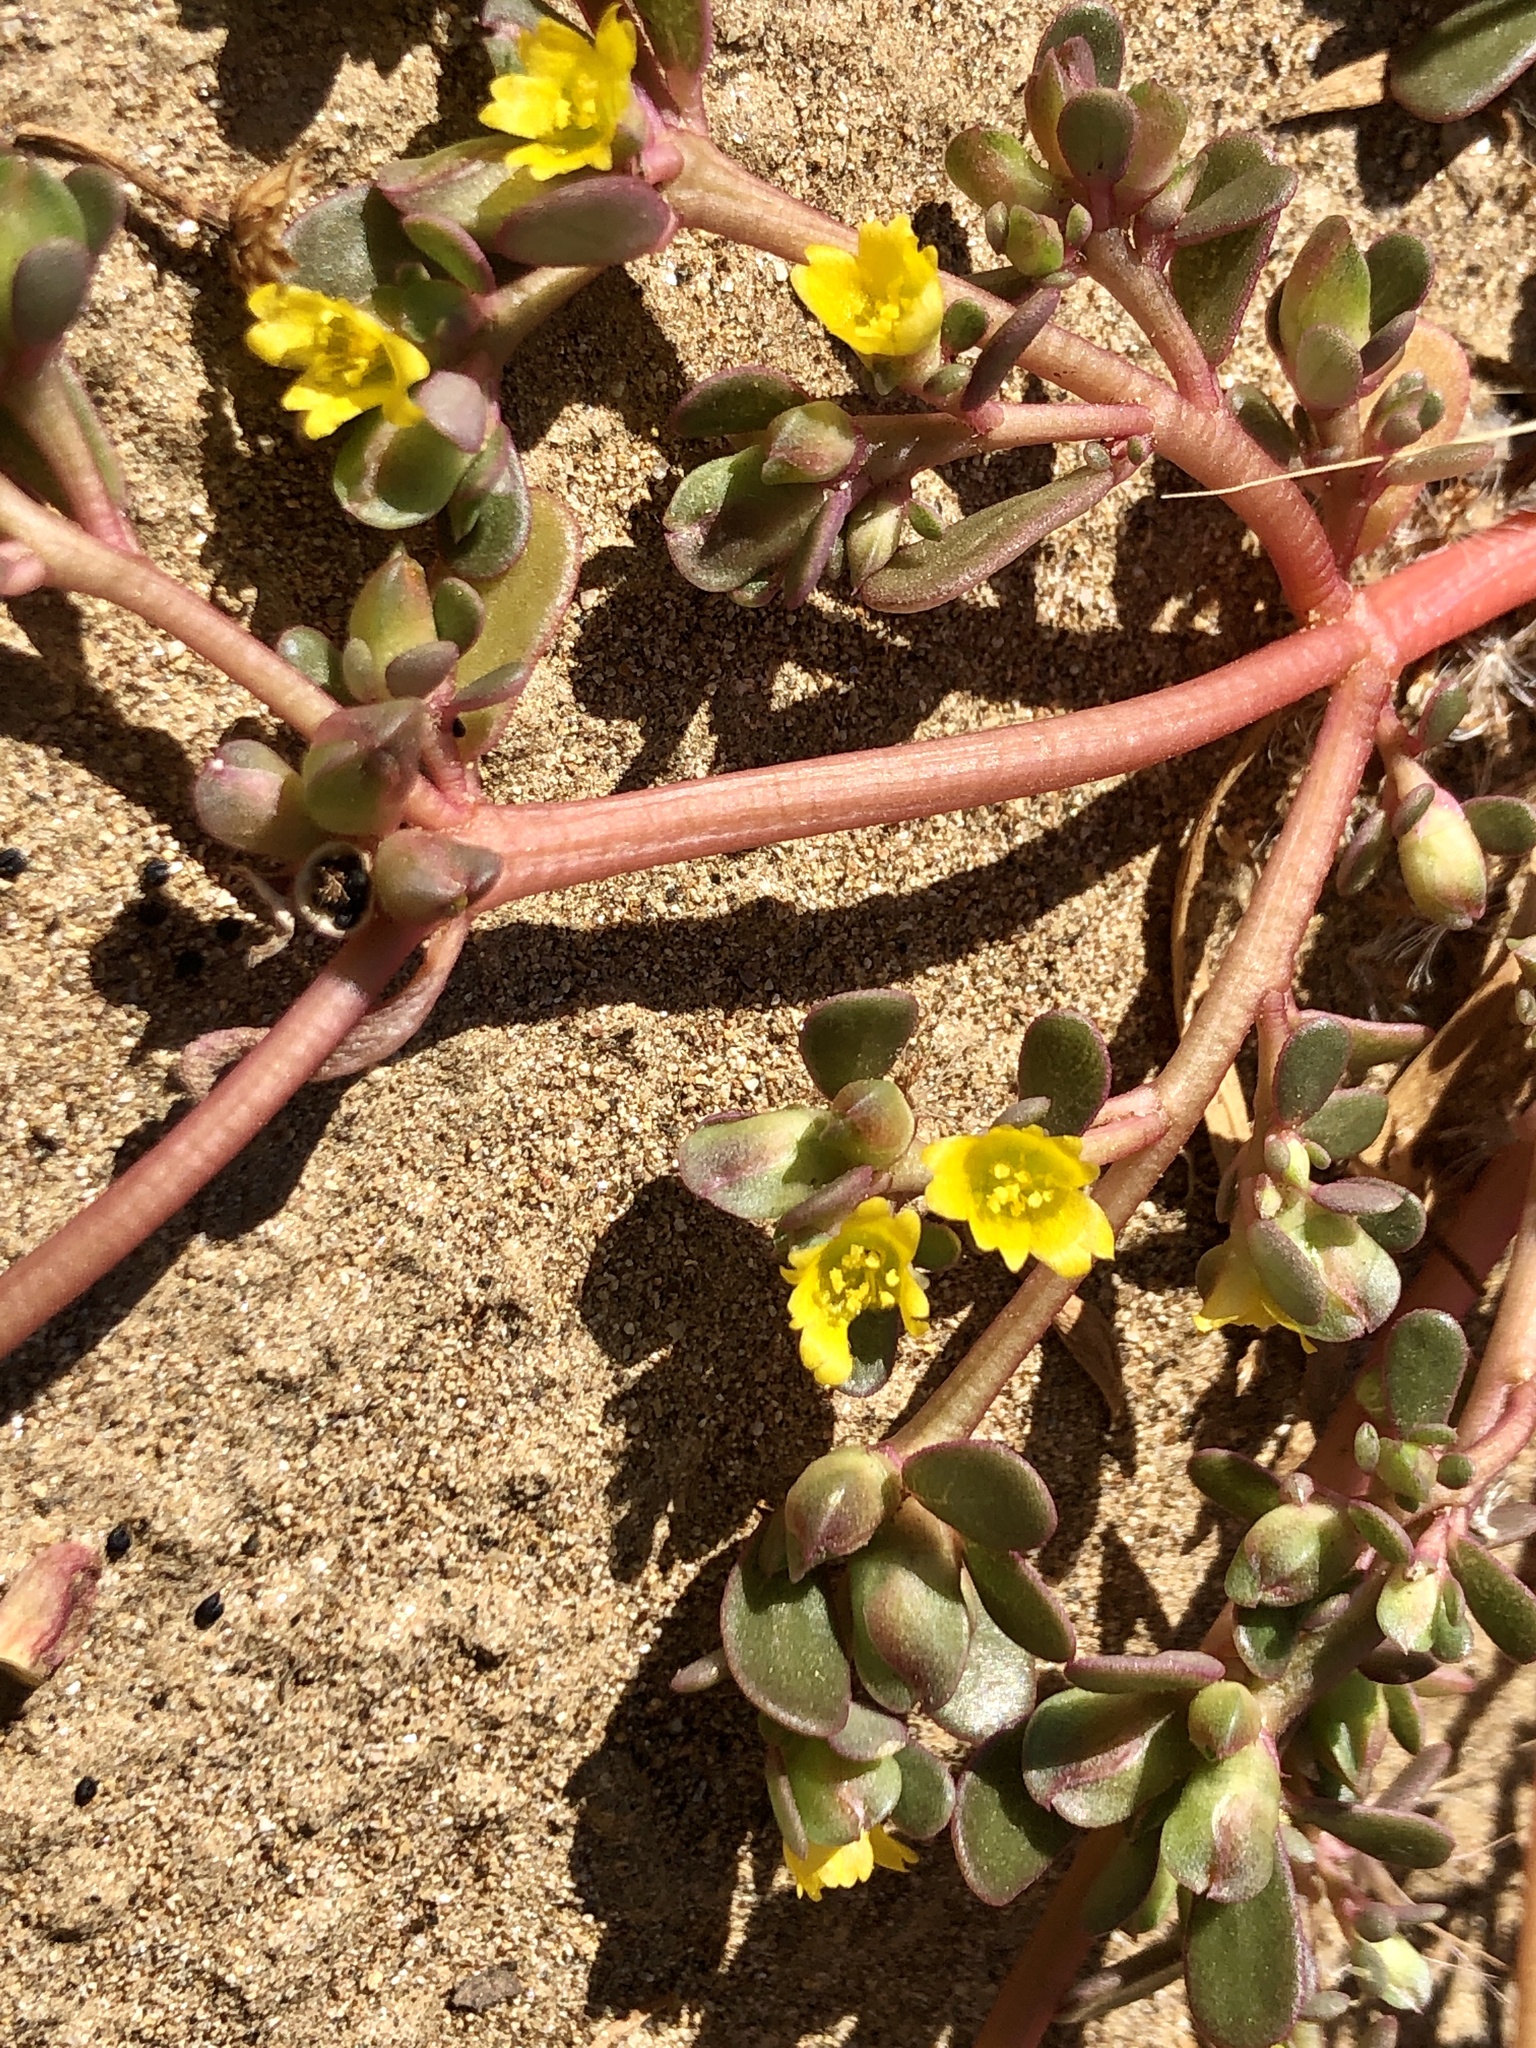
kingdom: Plantae
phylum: Tracheophyta
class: Magnoliopsida
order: Caryophyllales
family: Portulacaceae
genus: Portulaca
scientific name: Portulaca oleracea
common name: Common purslane
